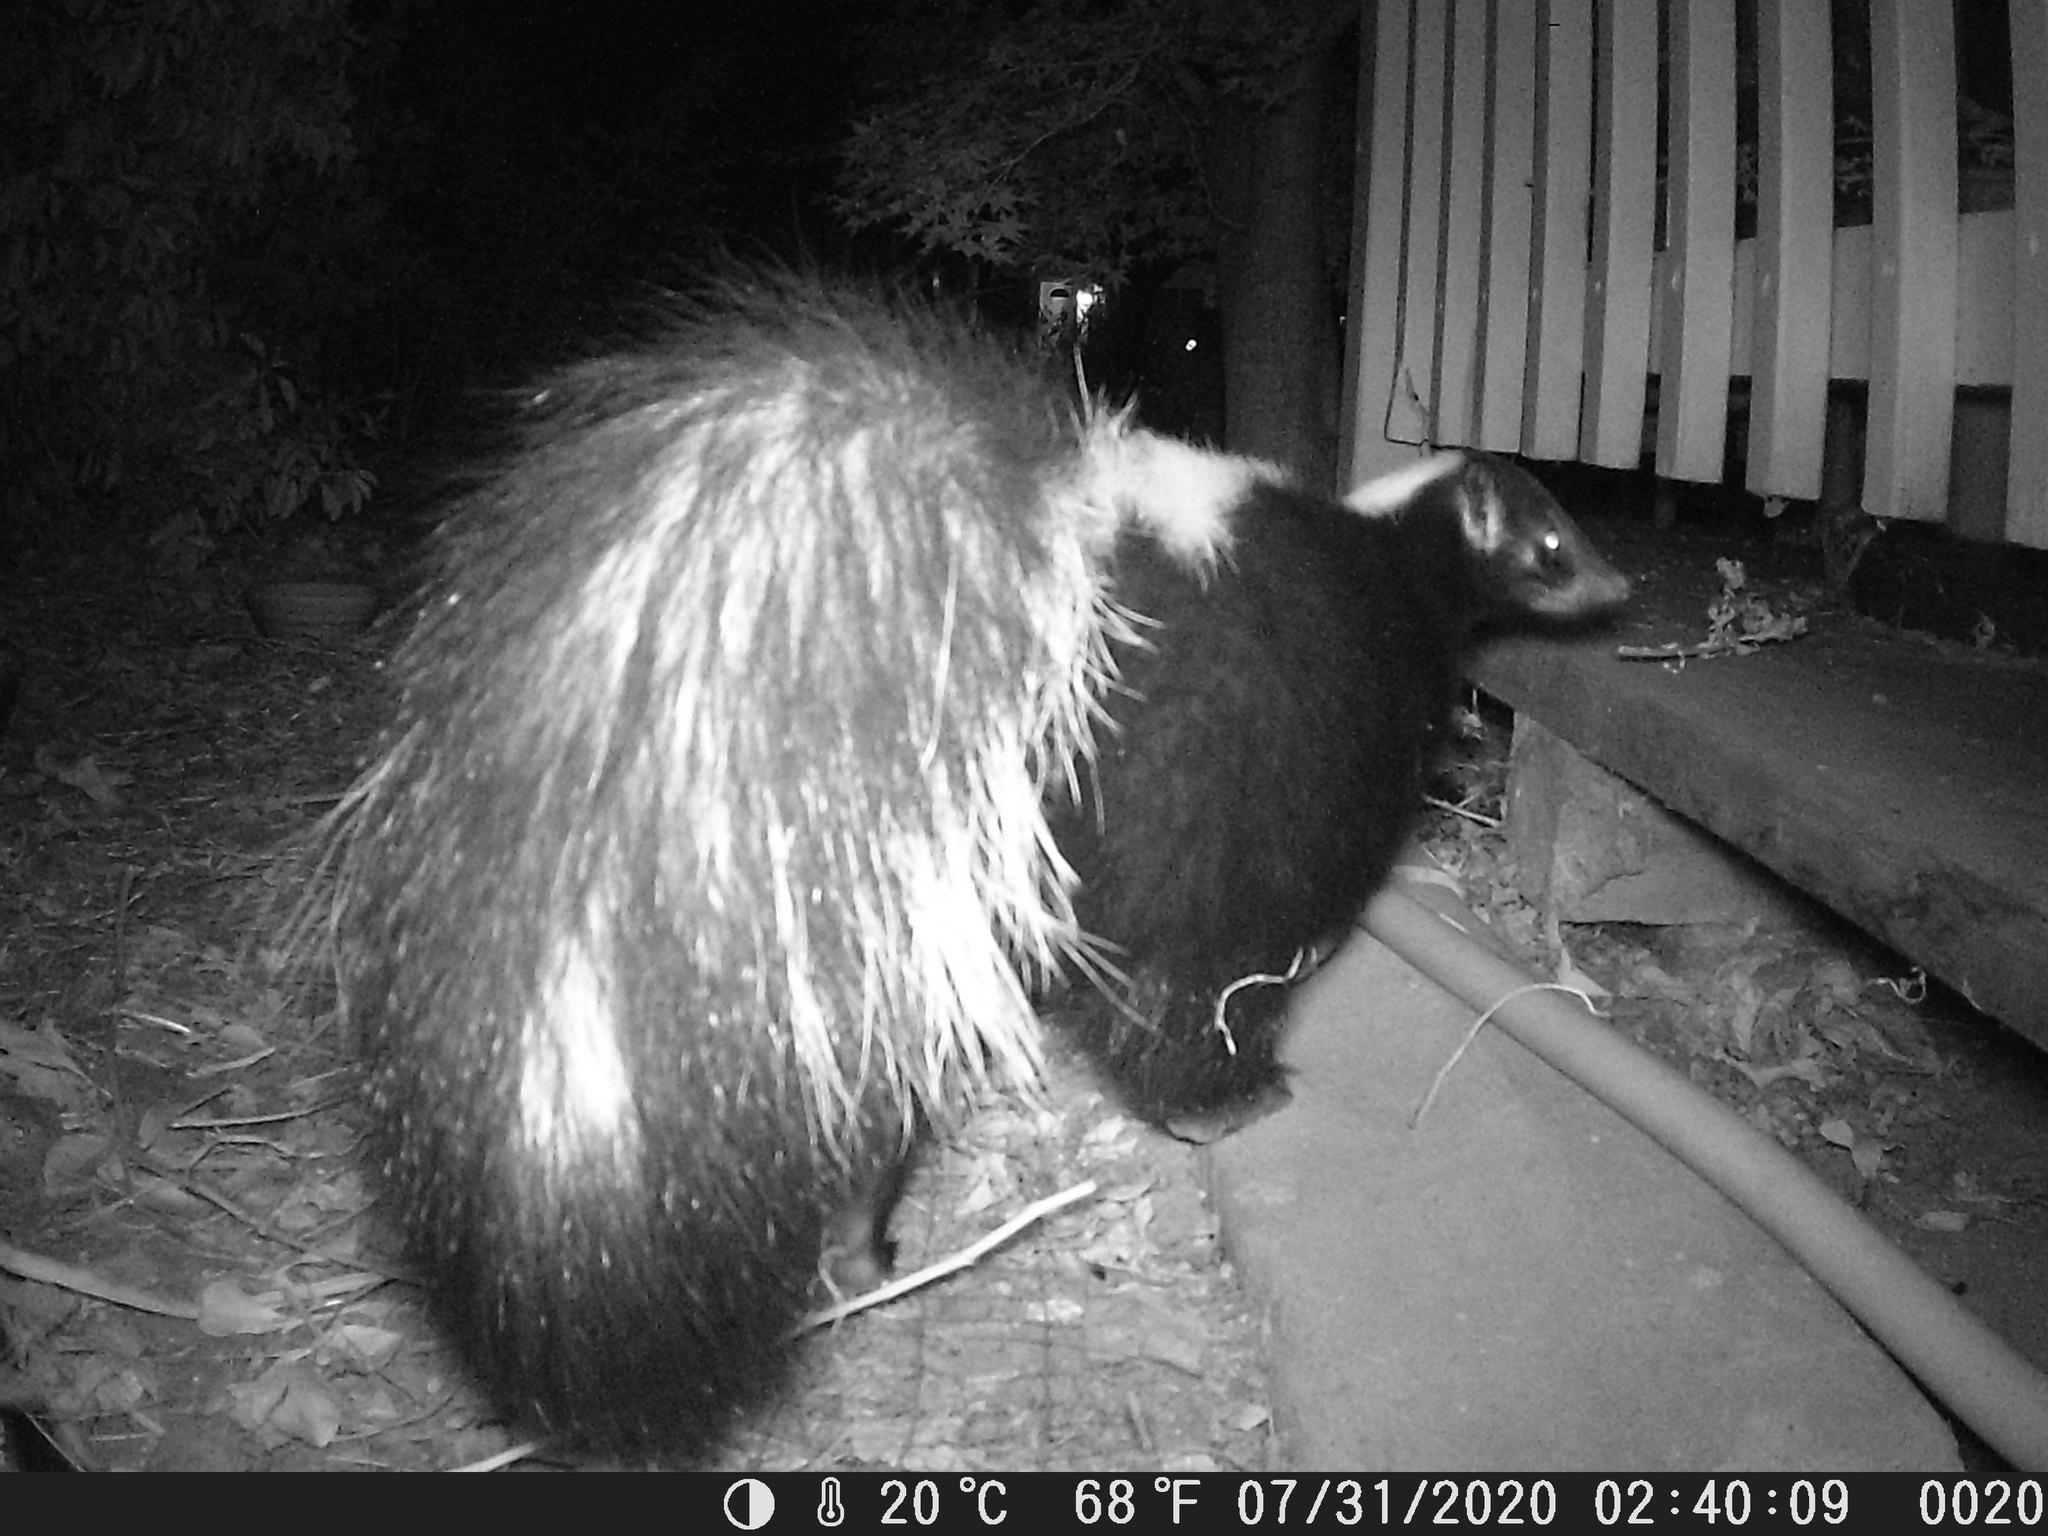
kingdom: Animalia
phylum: Chordata
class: Mammalia
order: Carnivora
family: Mephitidae
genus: Mephitis
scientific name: Mephitis mephitis
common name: Striped skunk
